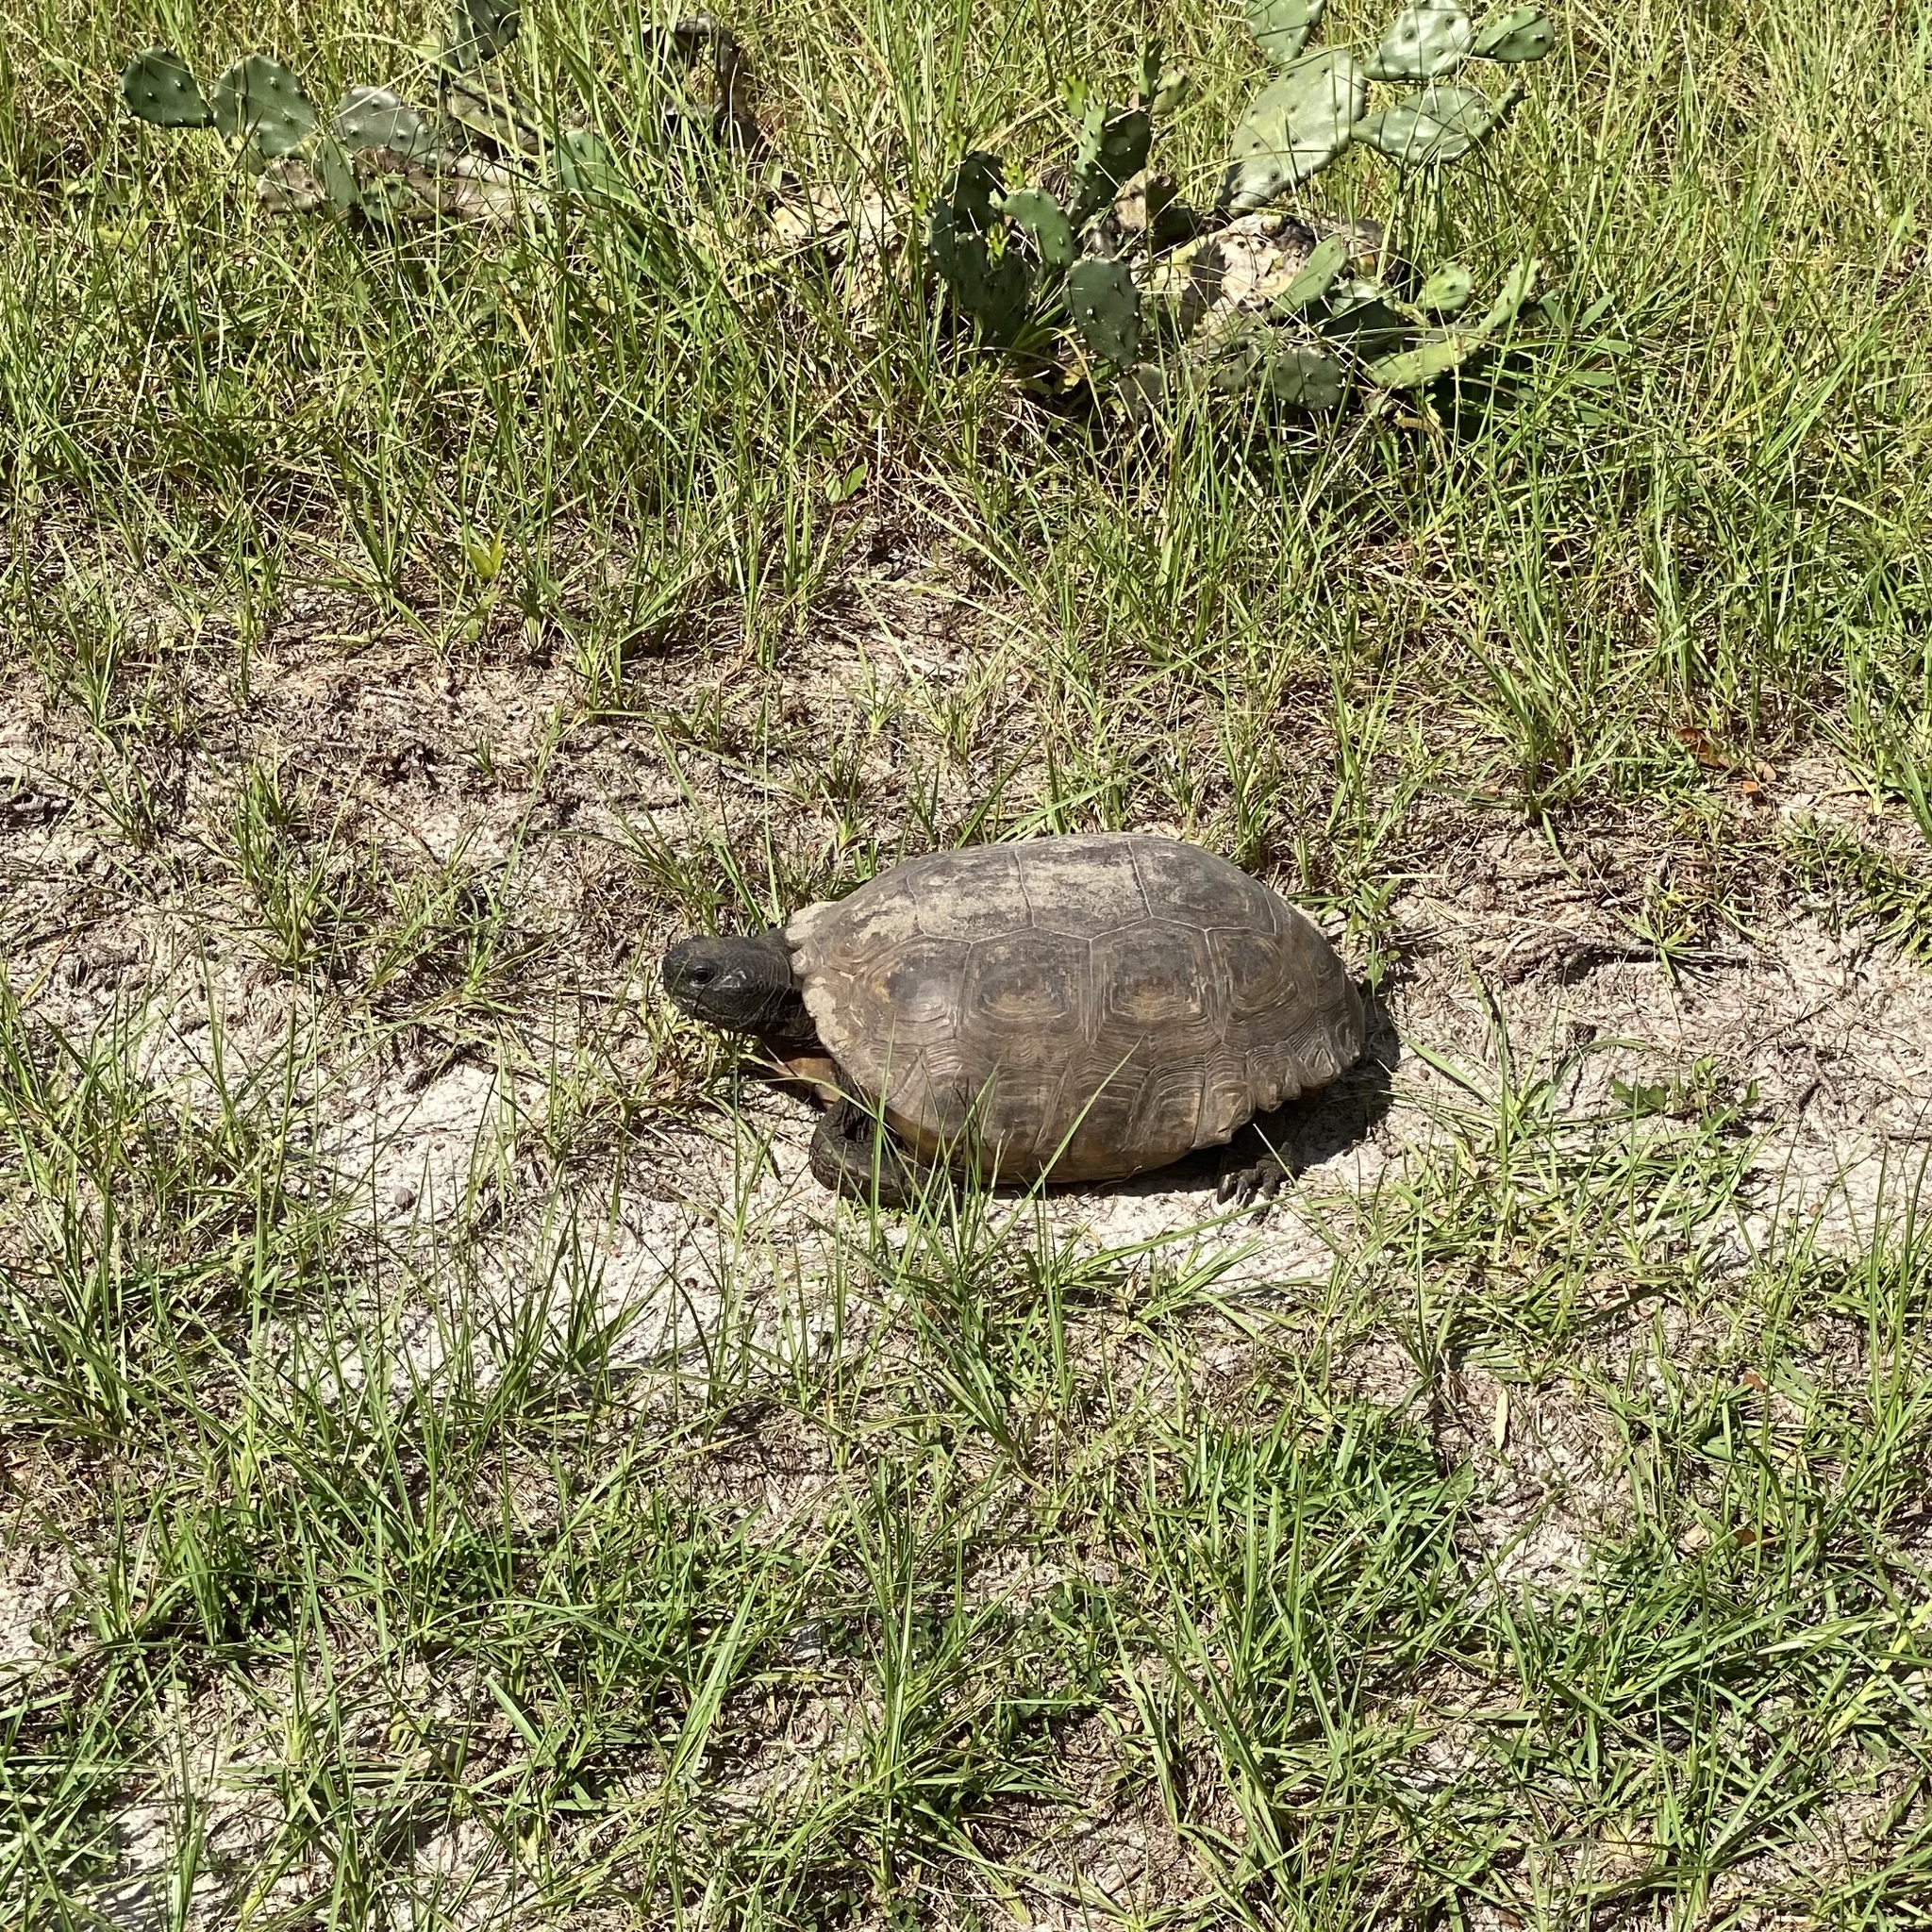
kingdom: Animalia
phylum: Chordata
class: Testudines
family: Testudinidae
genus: Gopherus
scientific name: Gopherus polyphemus
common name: Florida gopher tortoise
